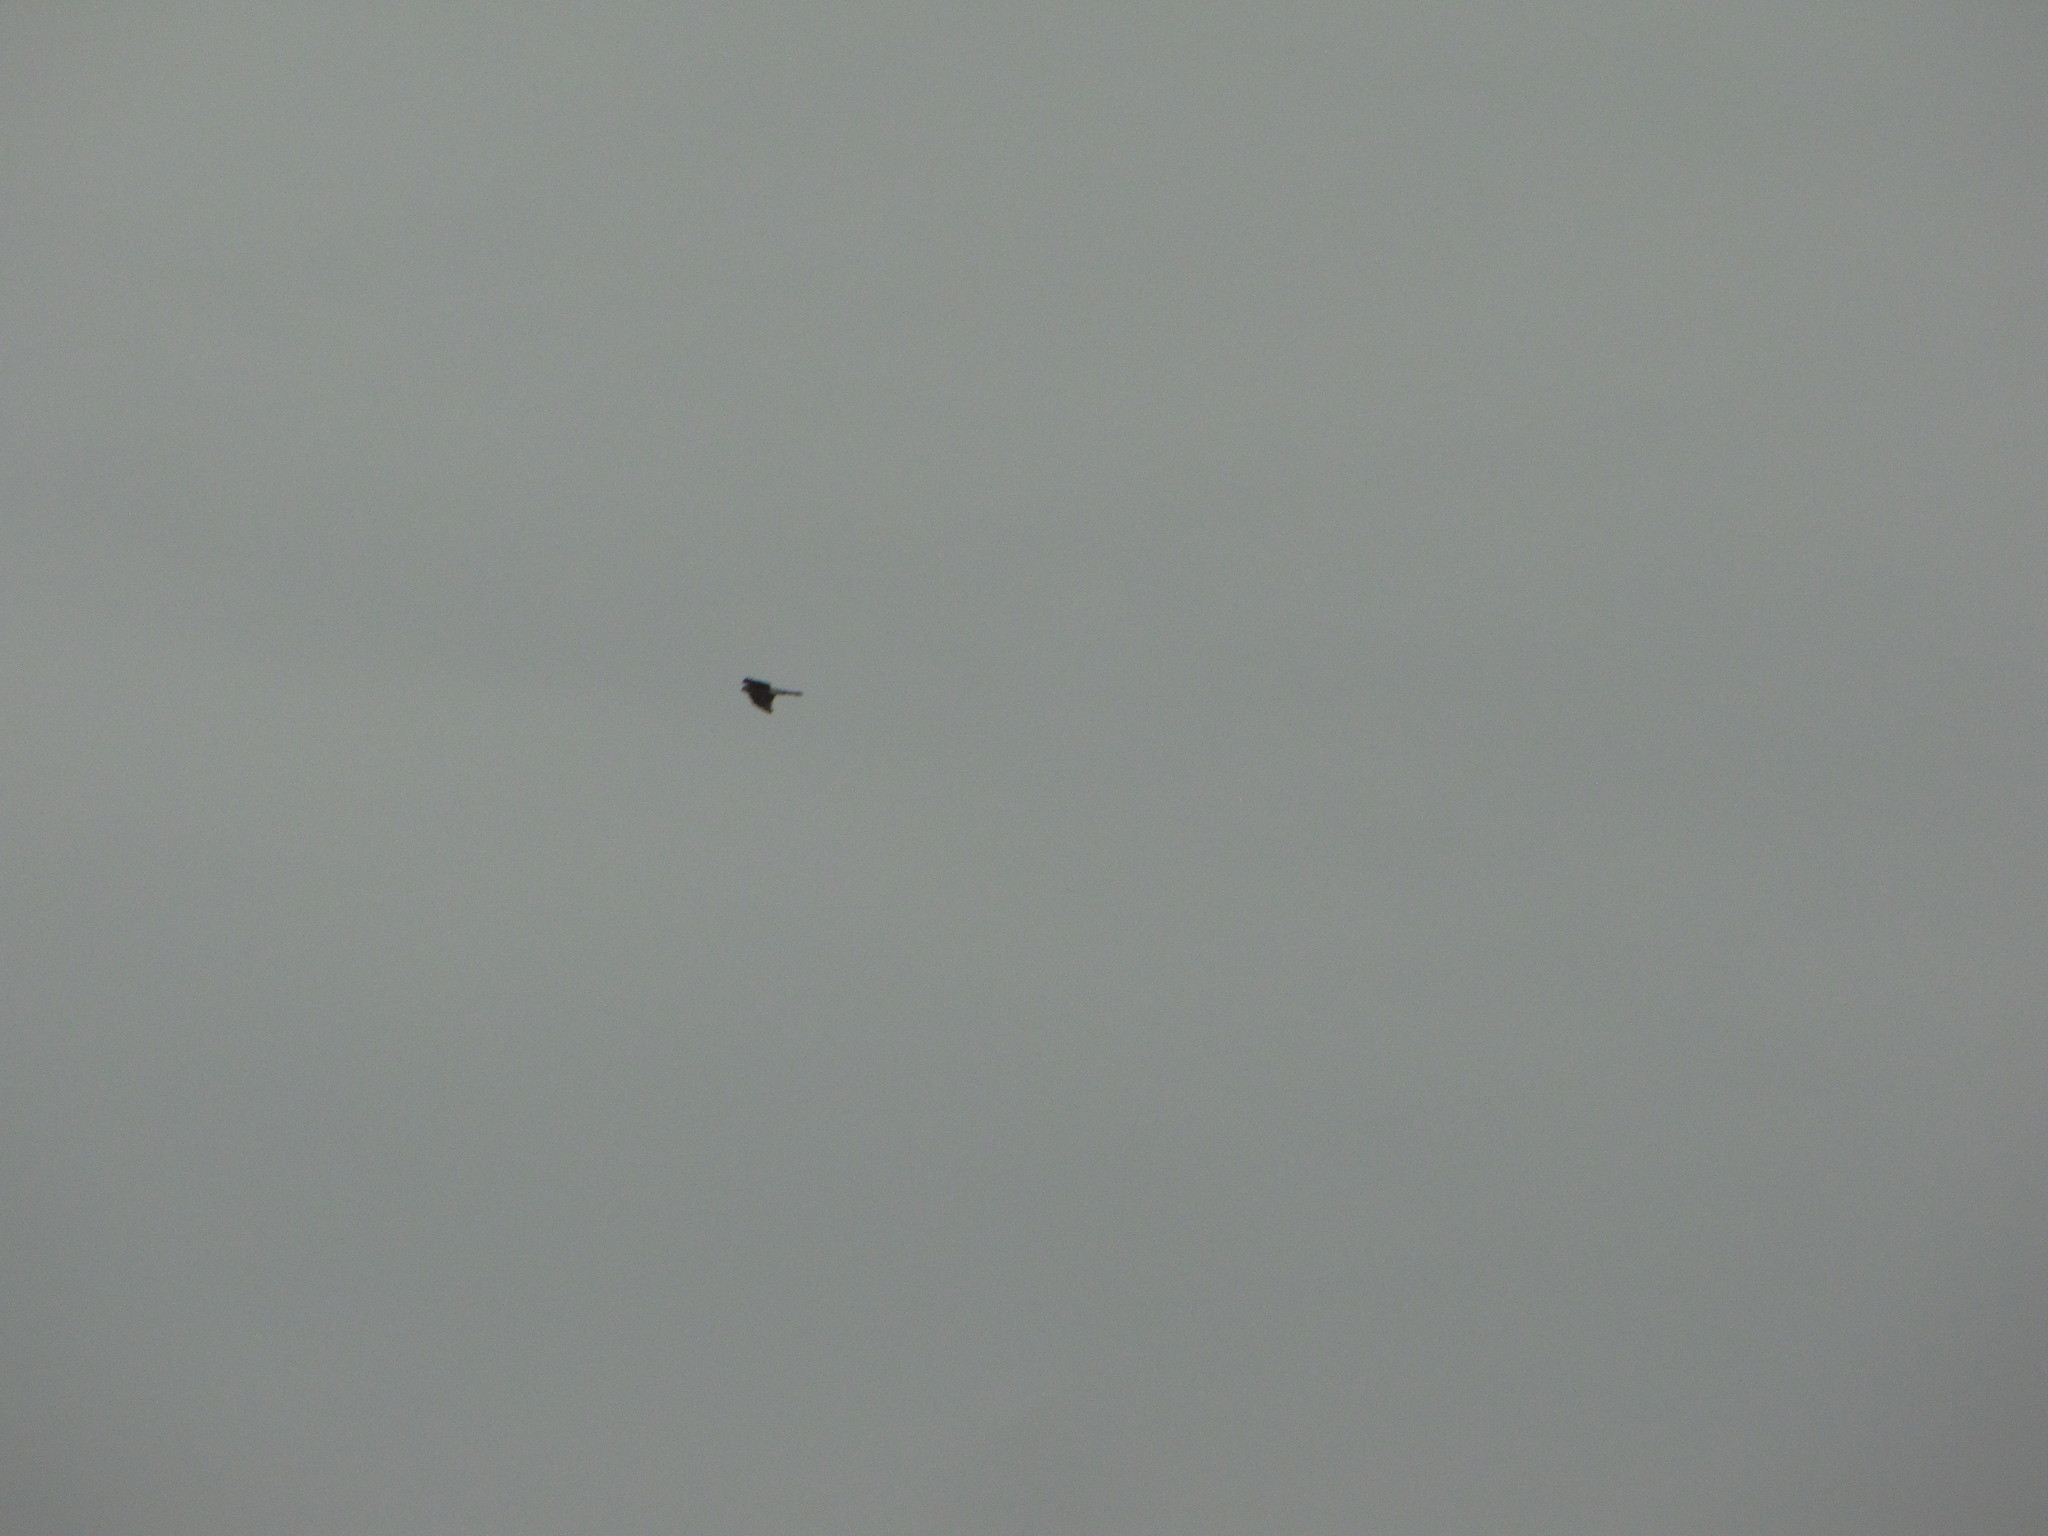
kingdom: Animalia
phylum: Chordata
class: Aves
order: Accipitriformes
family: Accipitridae
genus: Accipiter
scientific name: Accipiter
